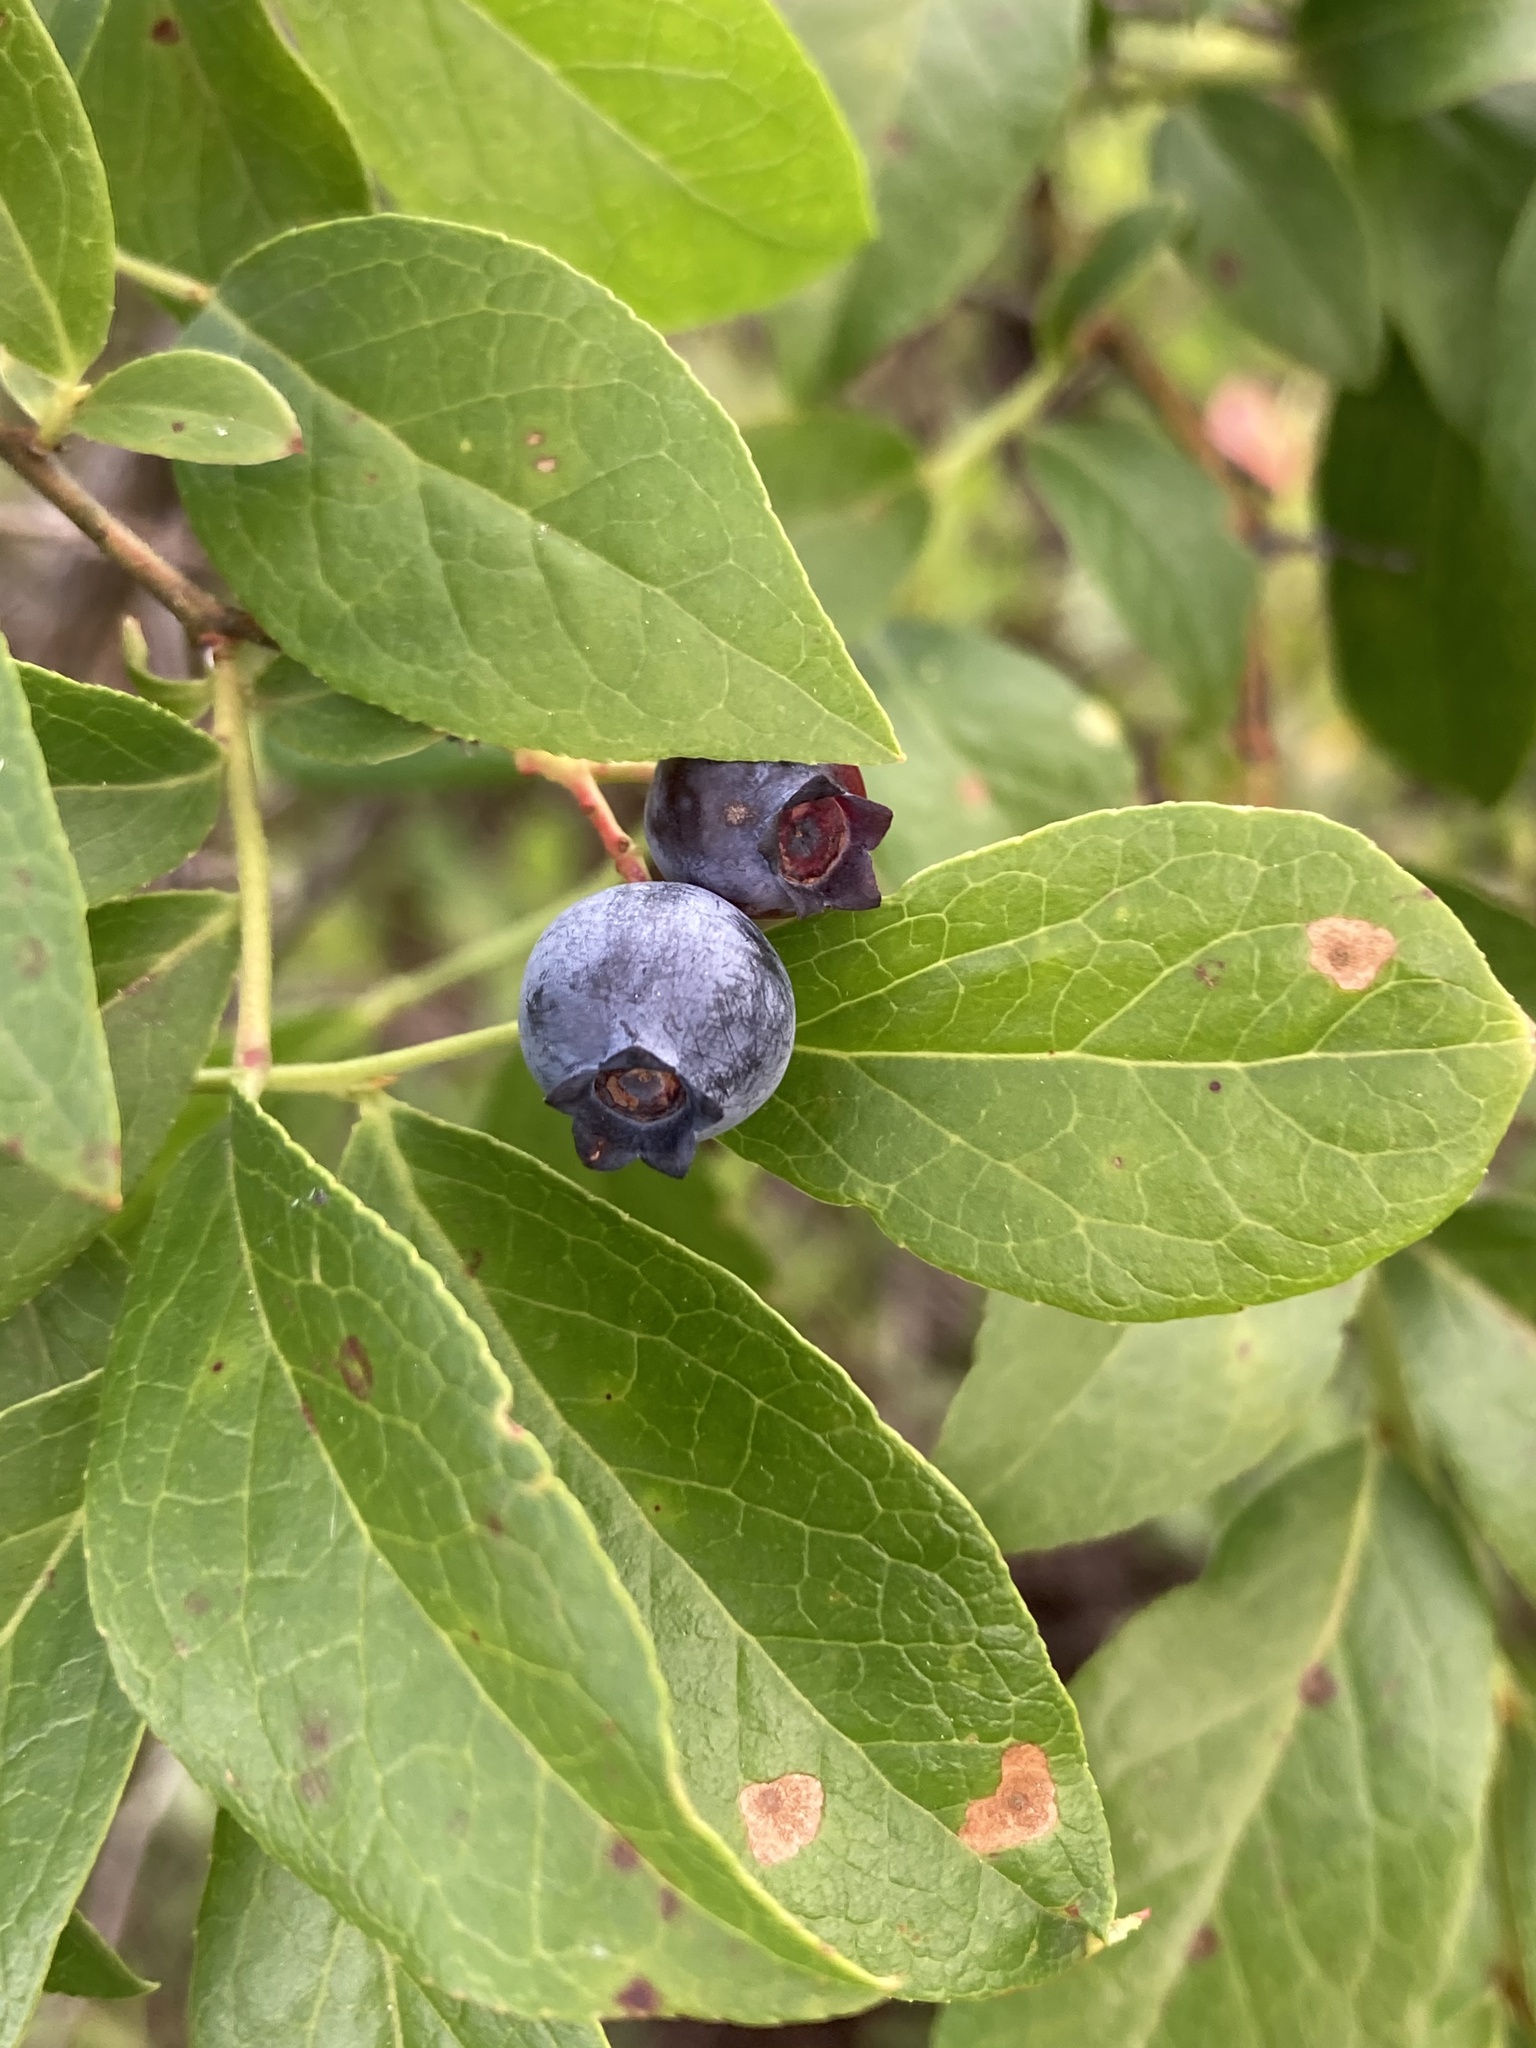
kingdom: Plantae
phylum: Tracheophyta
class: Magnoliopsida
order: Ericales
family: Ericaceae
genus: Vaccinium
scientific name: Vaccinium corymbosum
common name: Blueberry
